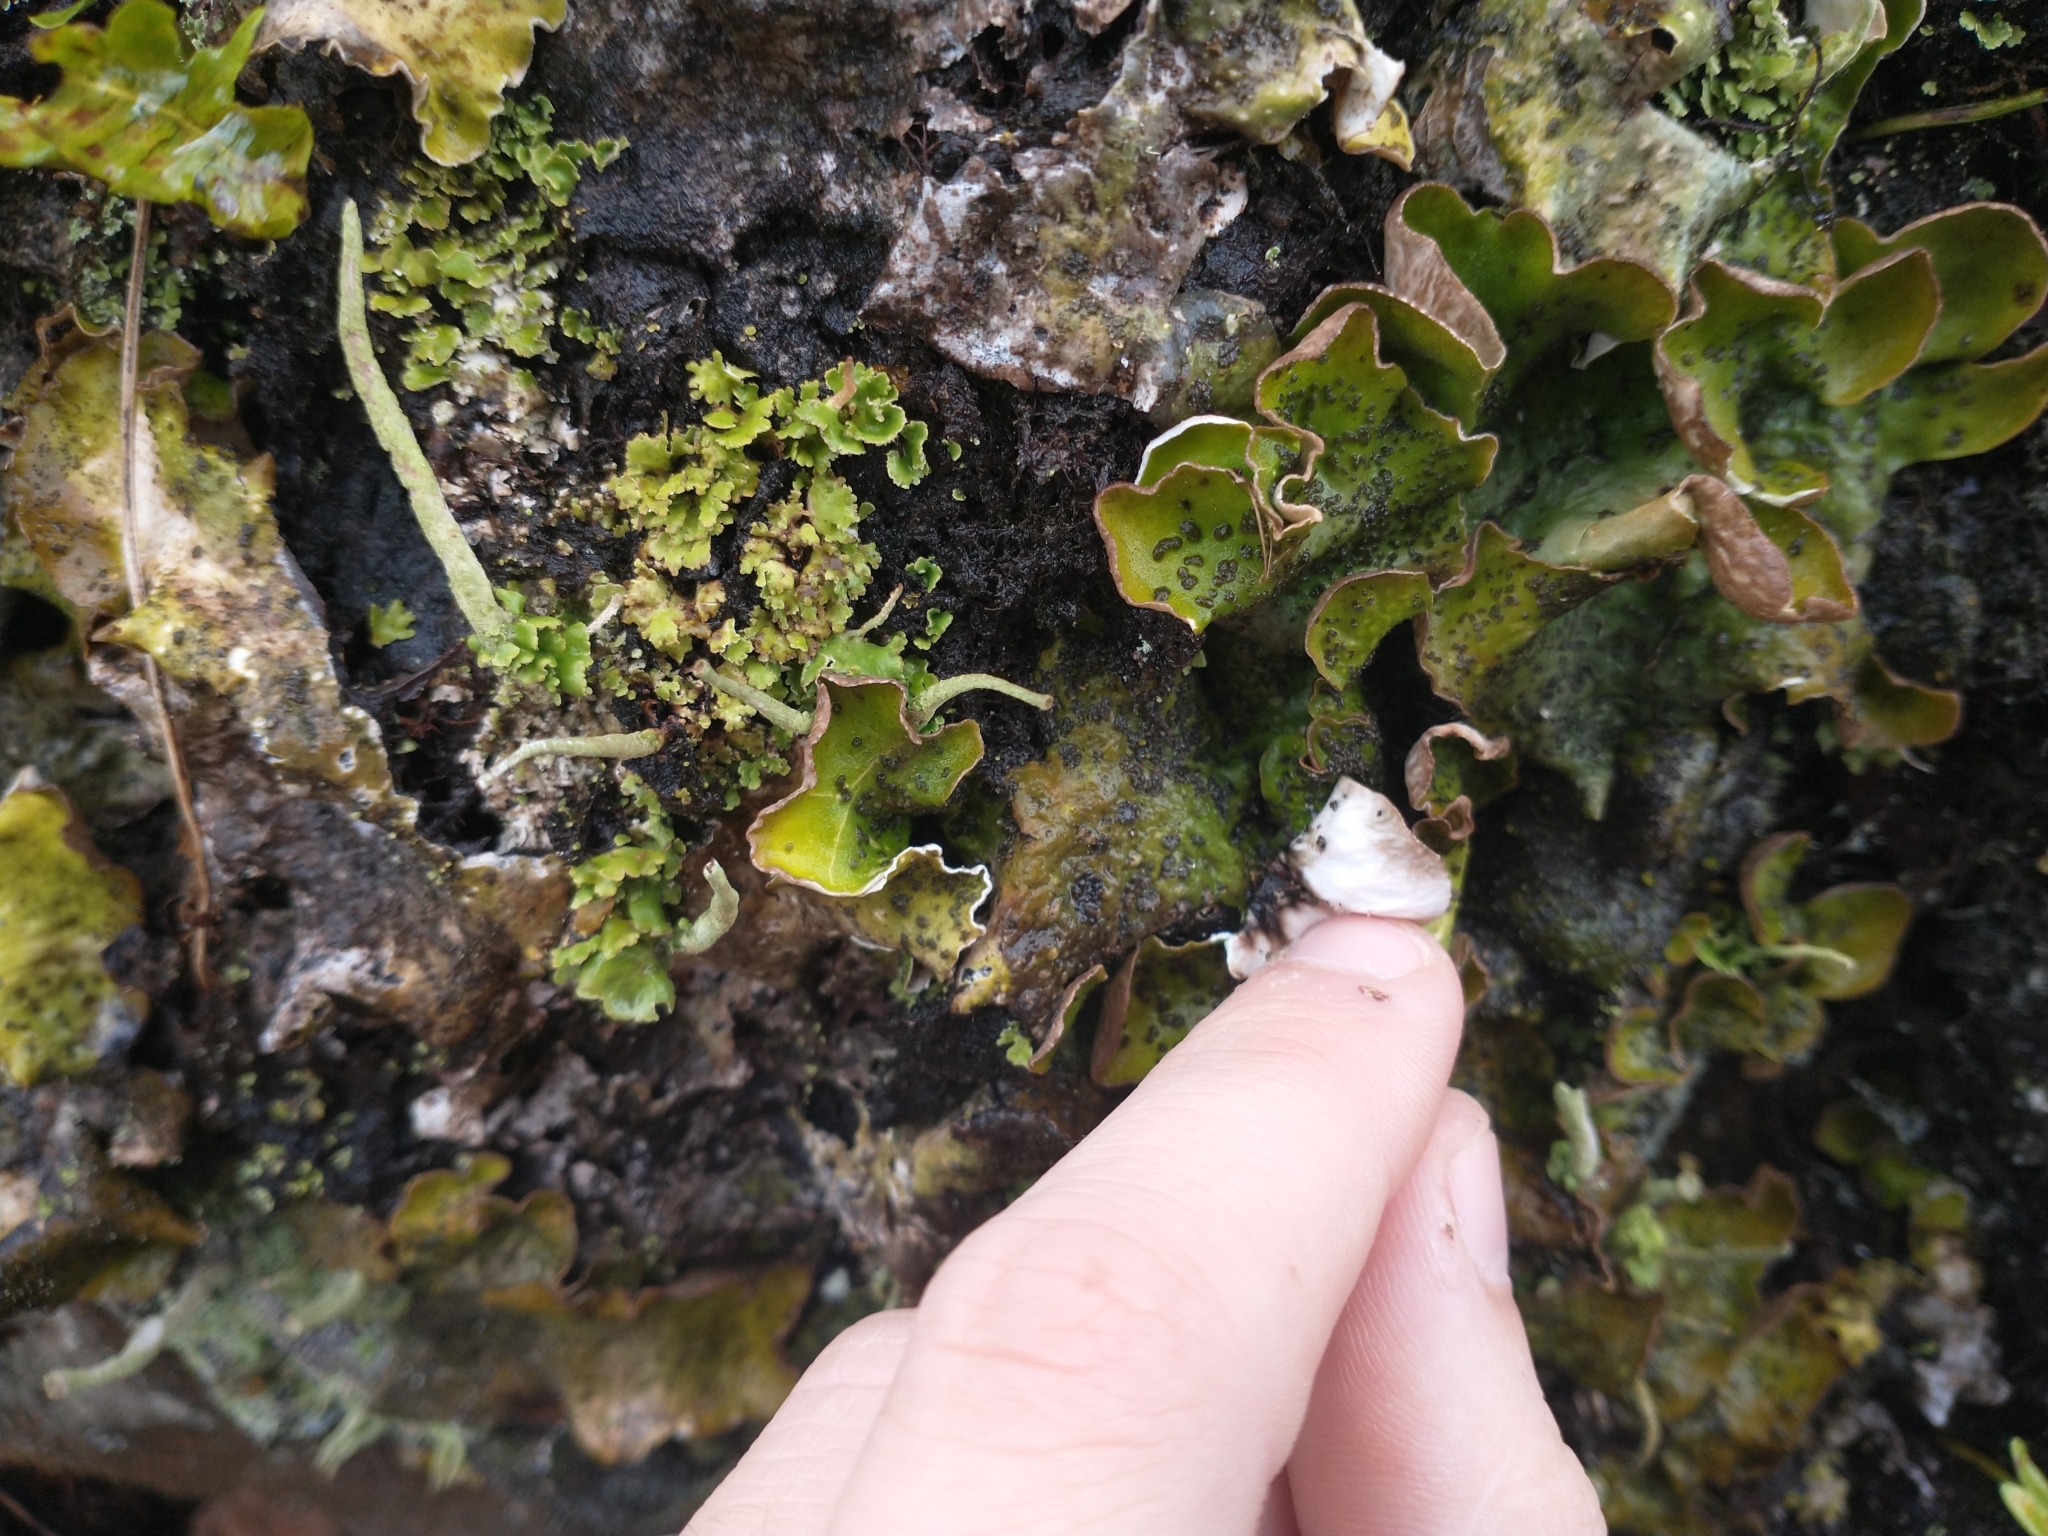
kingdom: Fungi
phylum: Ascomycota
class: Lecanoromycetes
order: Peltigerales
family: Peltigeraceae
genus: Peltigera
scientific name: Peltigera britannica
